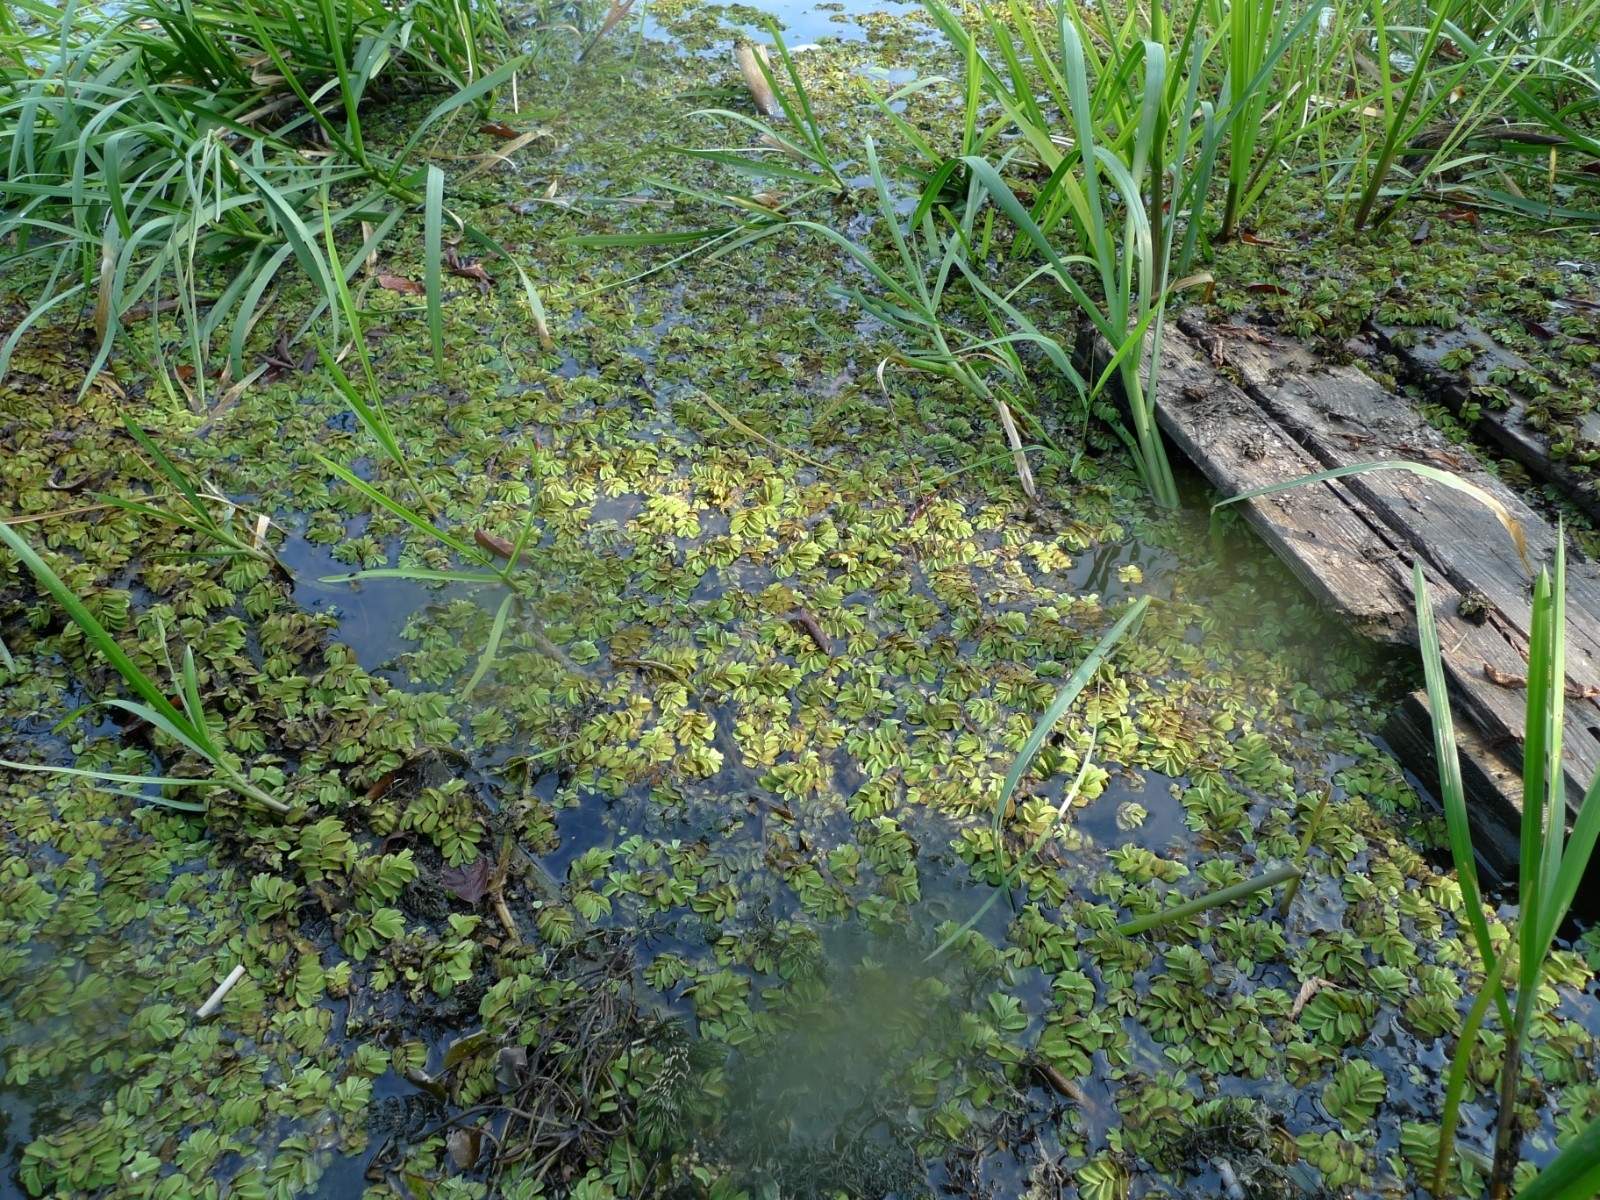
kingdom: Plantae
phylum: Tracheophyta
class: Polypodiopsida
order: Salviniales
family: Salviniaceae
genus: Salvinia
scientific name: Salvinia natans
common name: Floating fern
